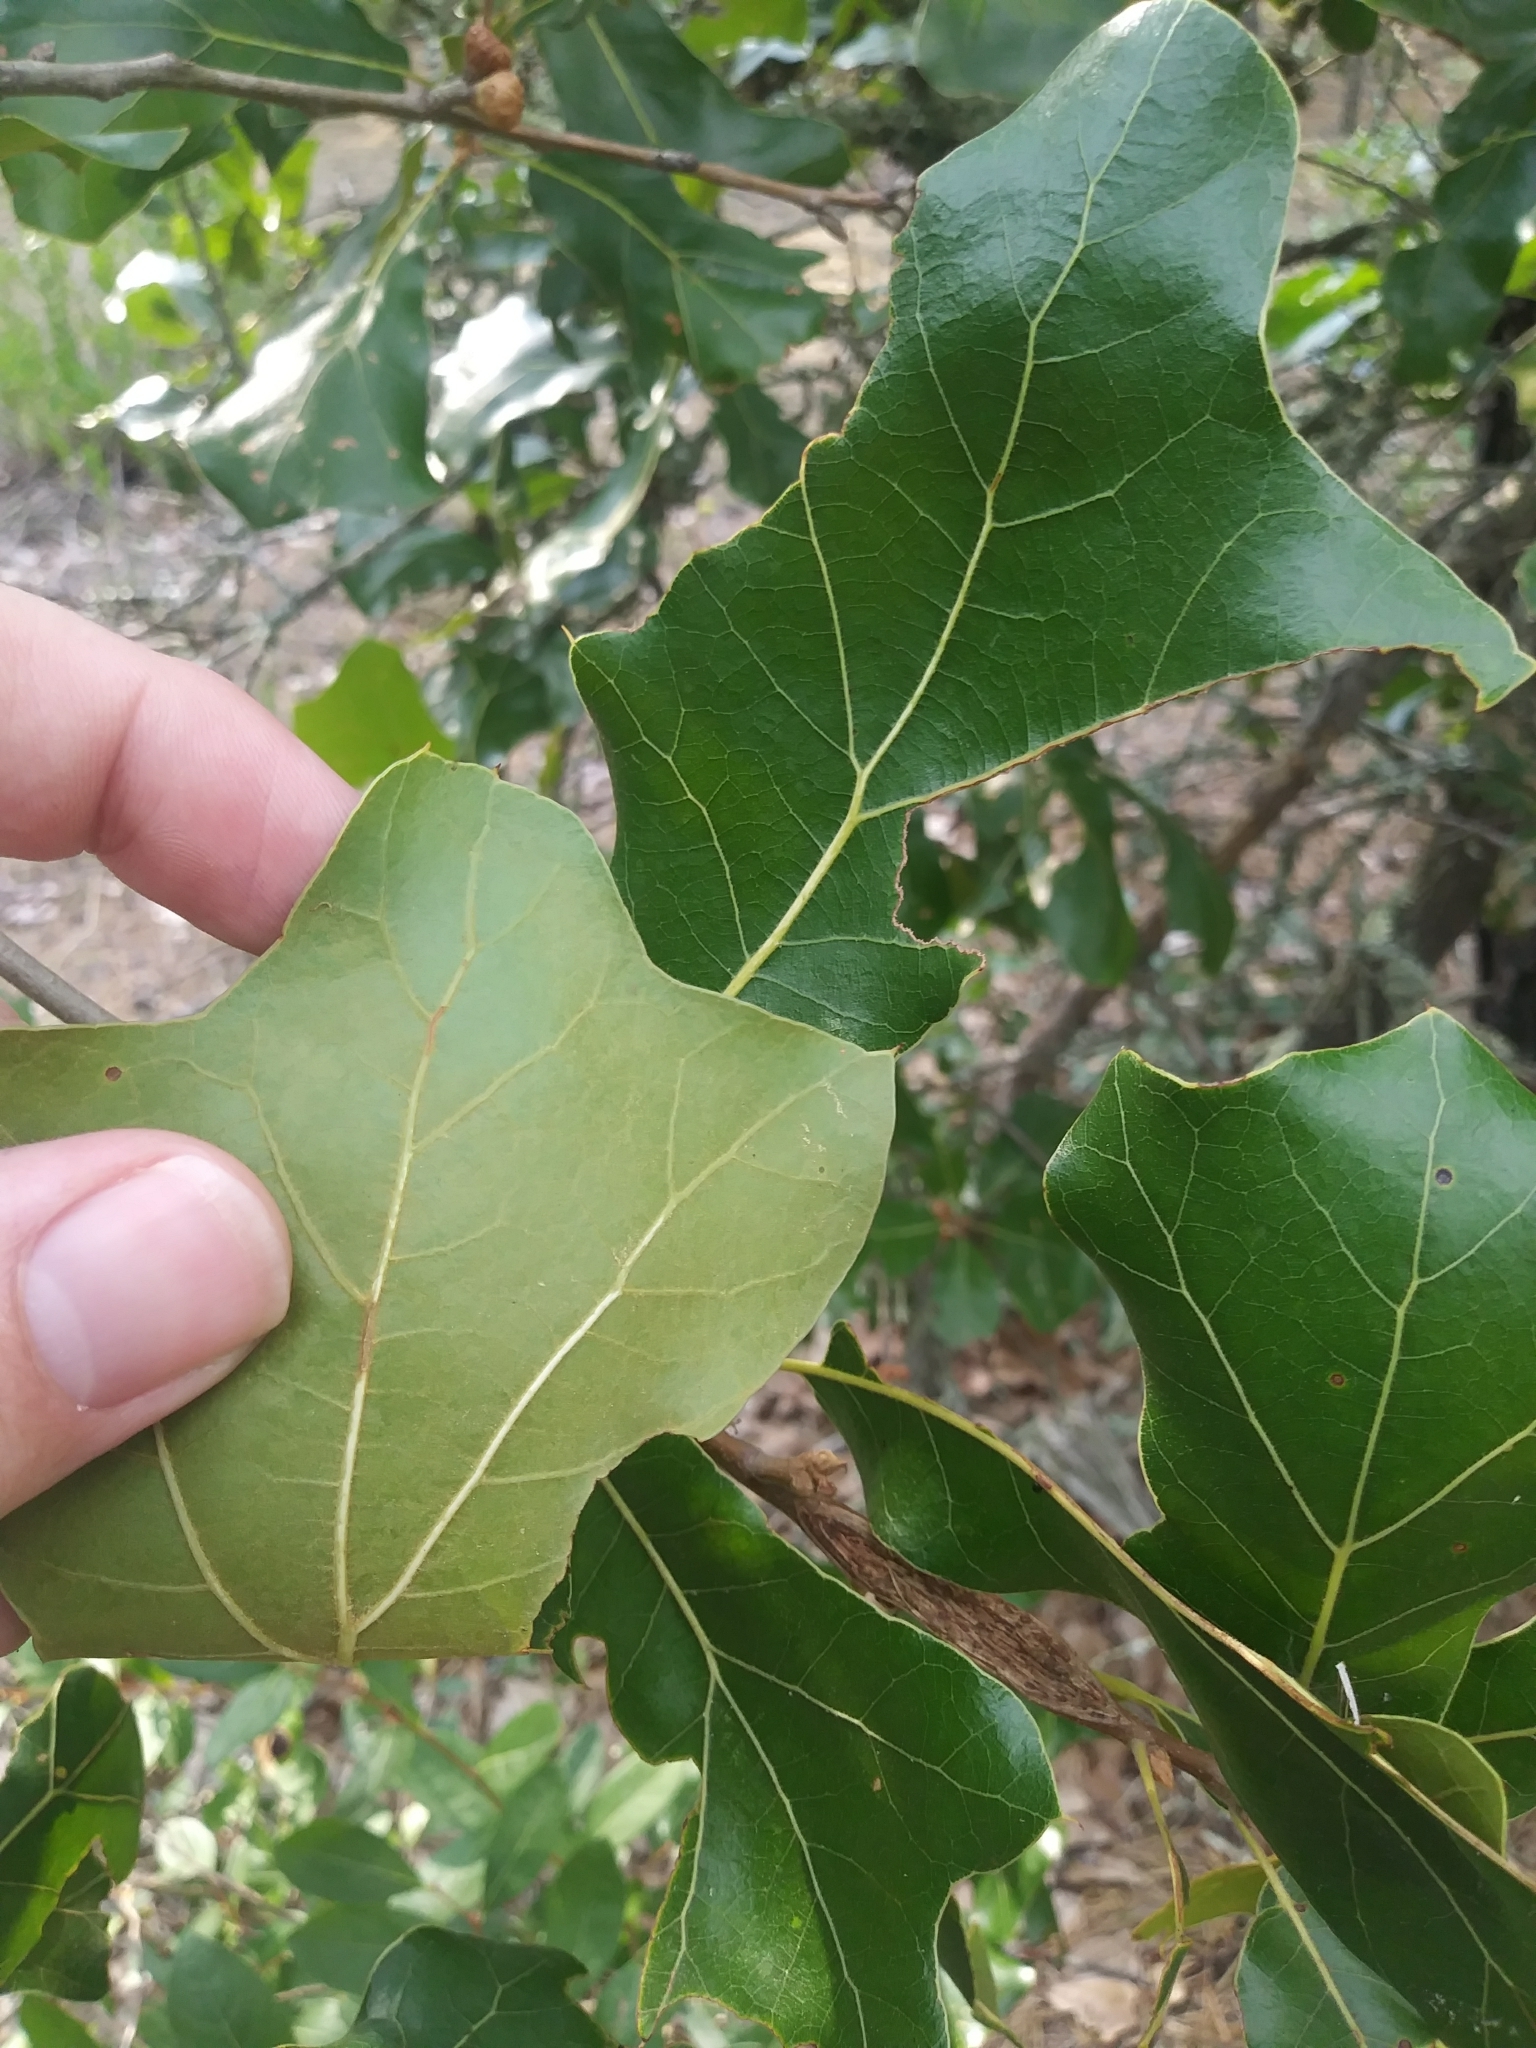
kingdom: Plantae
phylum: Tracheophyta
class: Magnoliopsida
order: Fagales
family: Fagaceae
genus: Quercus
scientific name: Quercus marilandica
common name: Blackjack oak
